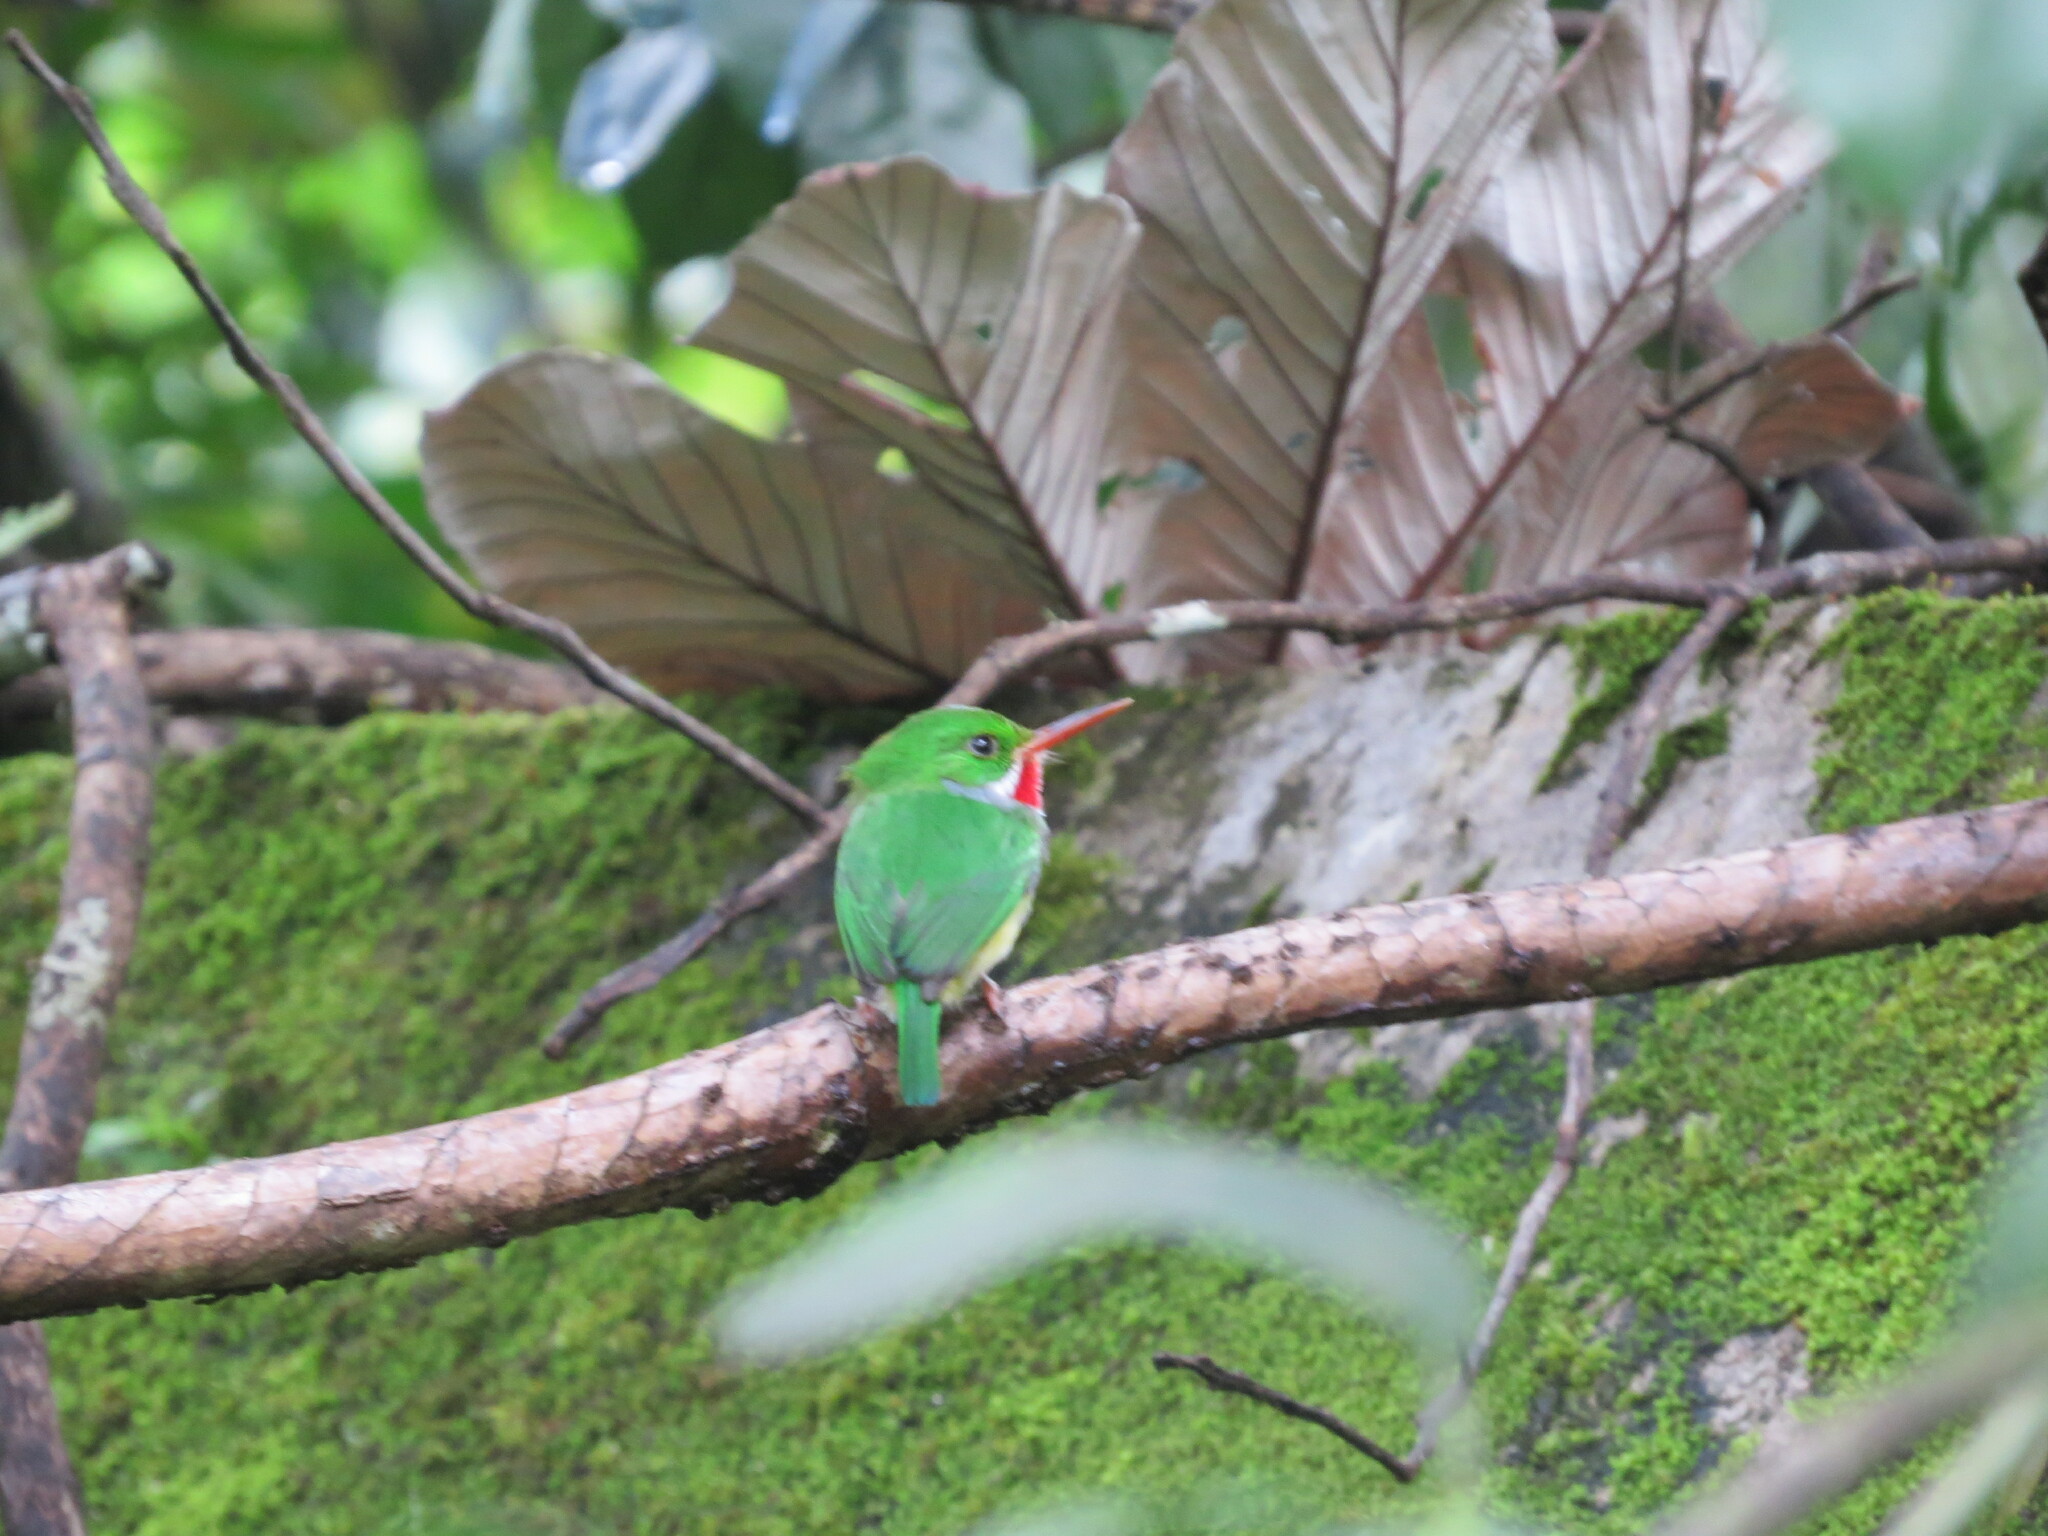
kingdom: Animalia
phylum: Chordata
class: Aves
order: Coraciiformes
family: Todidae
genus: Todus
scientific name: Todus mexicanus
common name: Puerto rican tody
